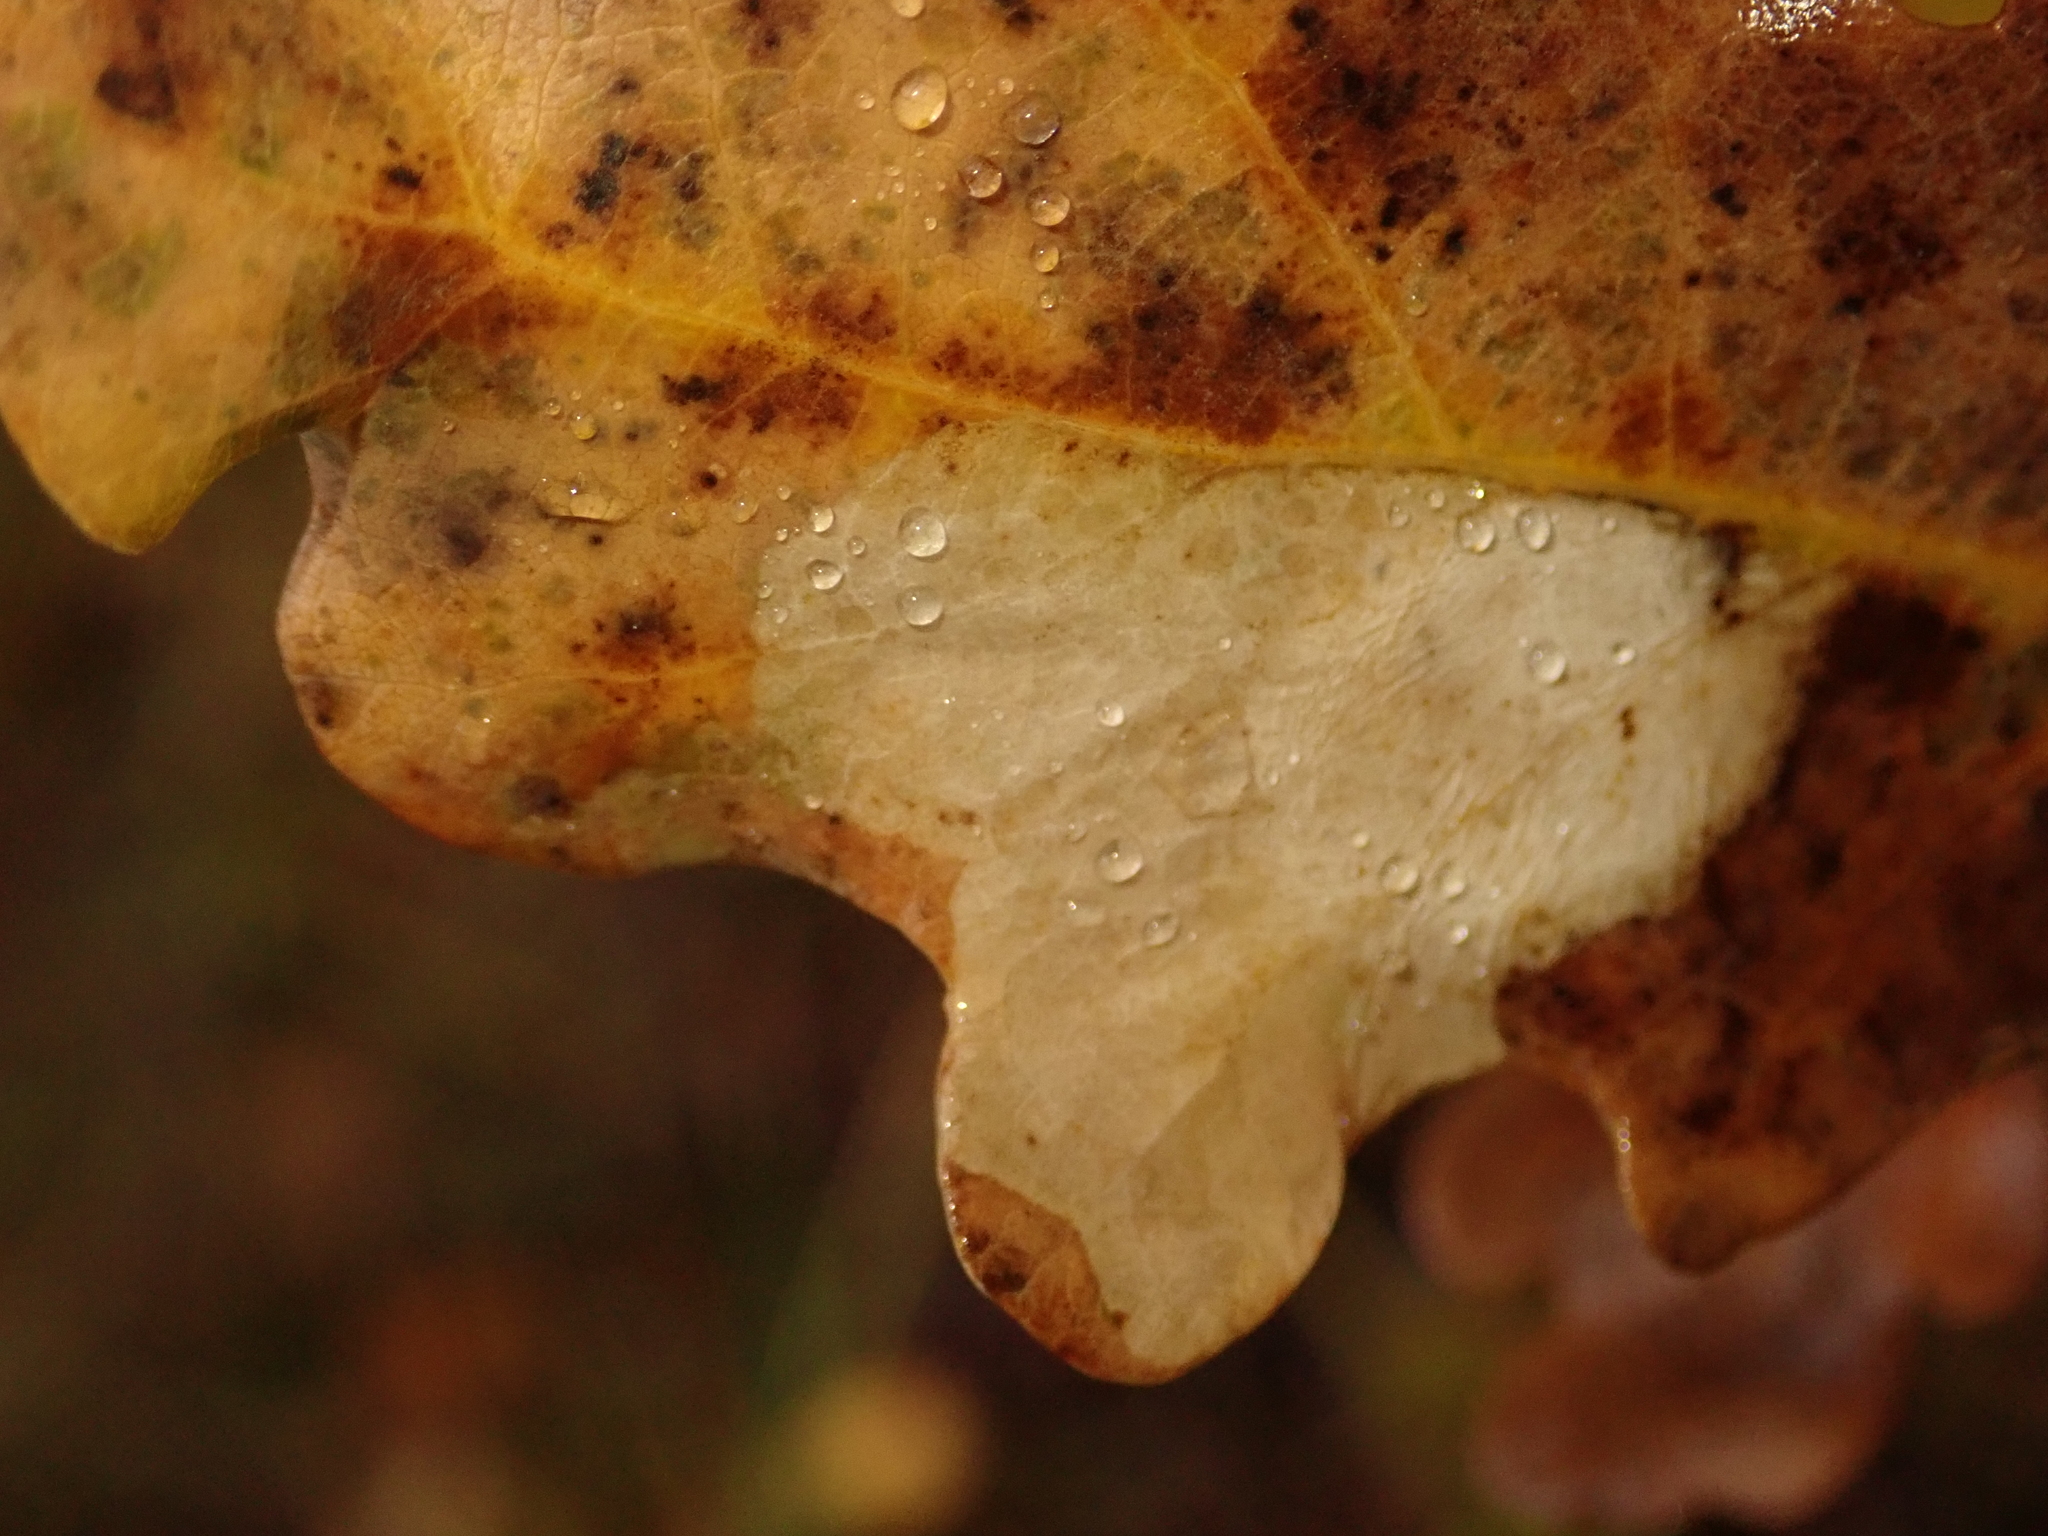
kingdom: Animalia
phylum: Arthropoda
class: Insecta
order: Lepidoptera
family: Tischeriidae
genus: Tischeria
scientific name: Tischeria ekebladella
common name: Oak carl
